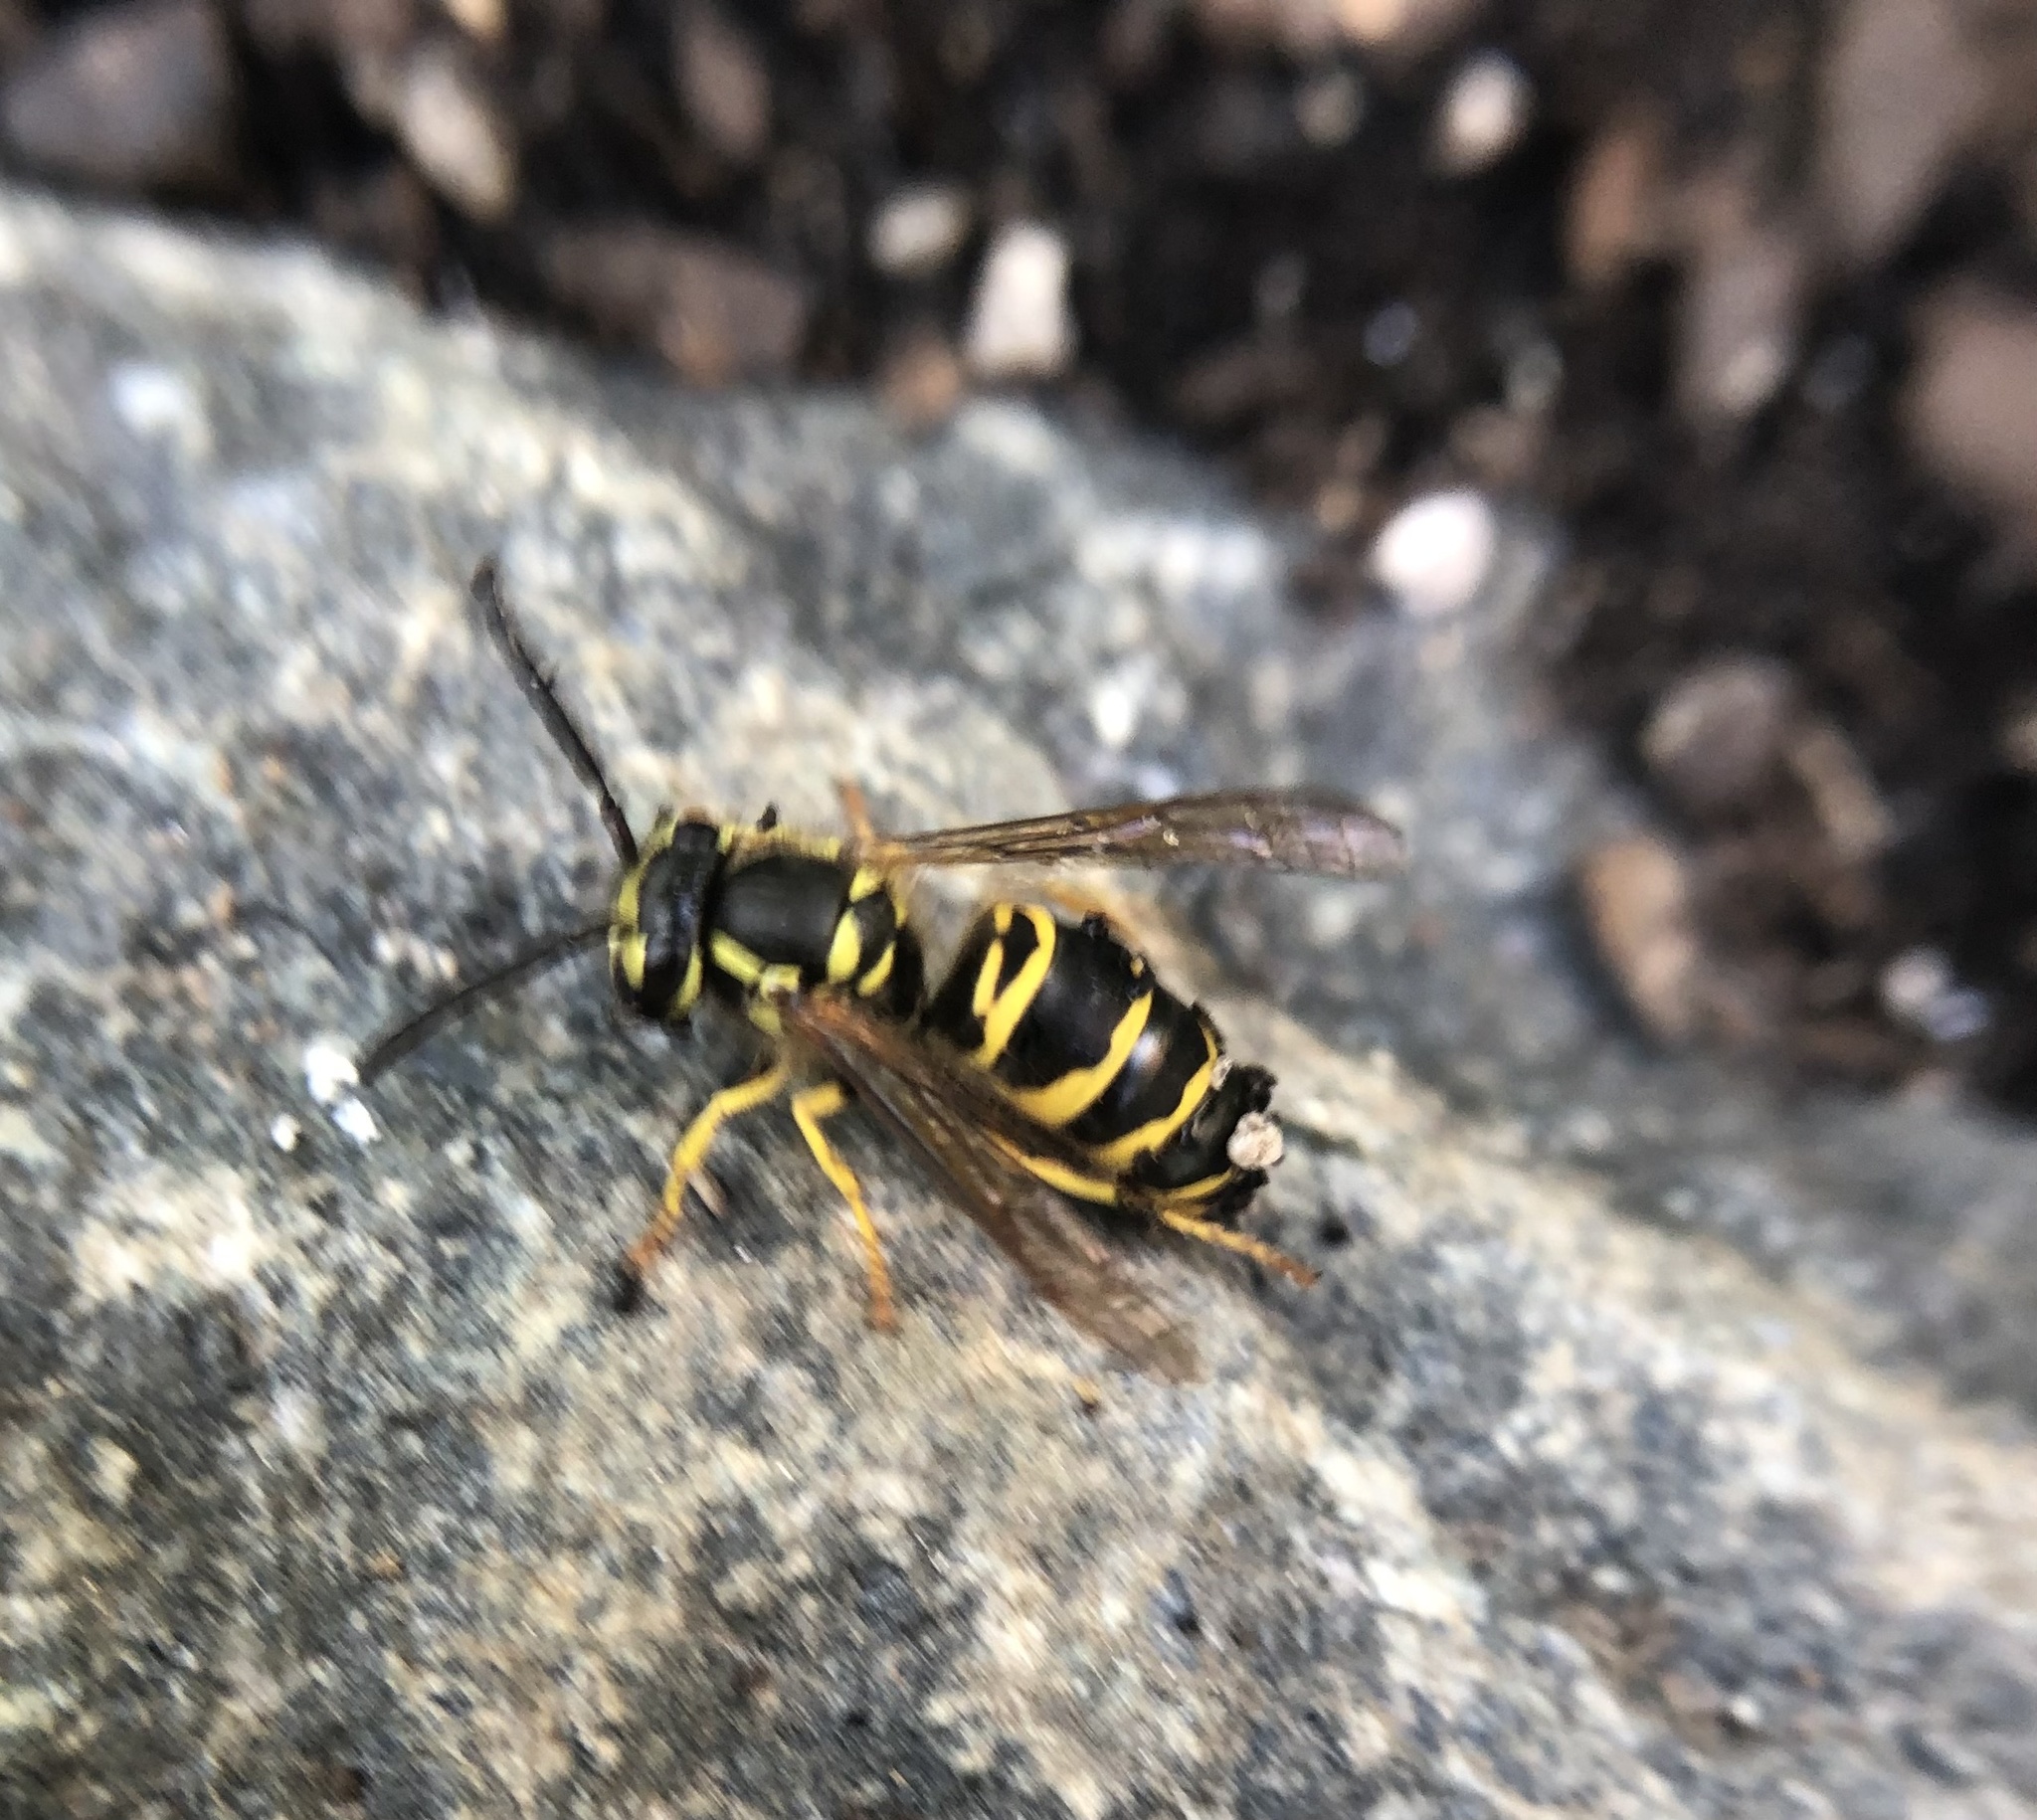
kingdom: Animalia
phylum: Arthropoda
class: Insecta
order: Hymenoptera
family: Vespidae
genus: Vespula
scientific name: Vespula maculifrons
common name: Eastern yellowjacket
